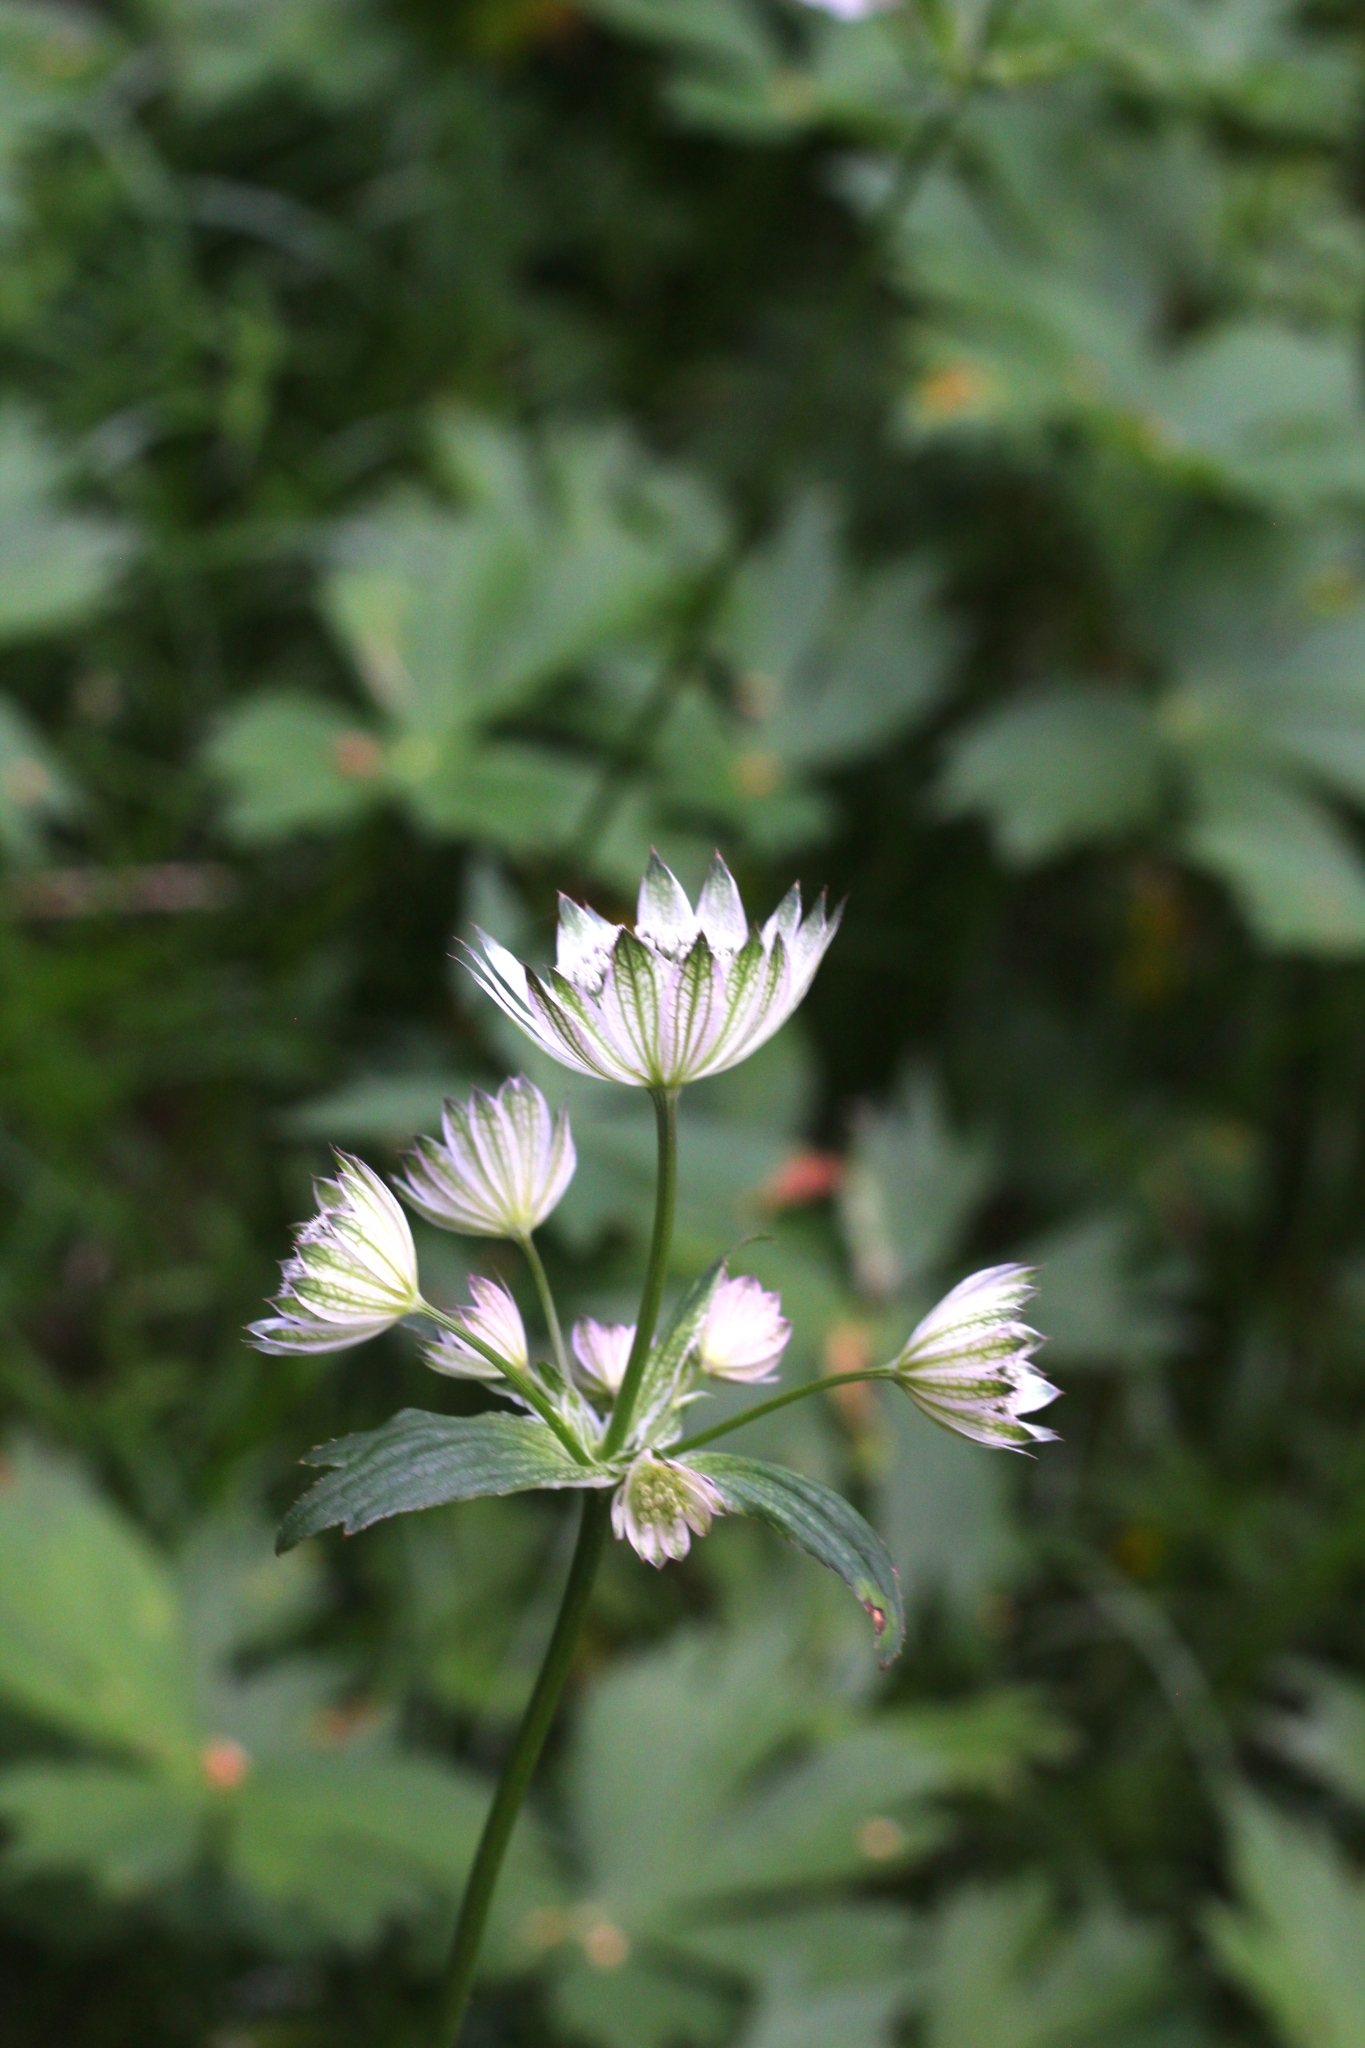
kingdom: Plantae
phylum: Tracheophyta
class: Magnoliopsida
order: Apiales
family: Apiaceae
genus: Astrantia
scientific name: Astrantia major
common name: Greater masterwort
